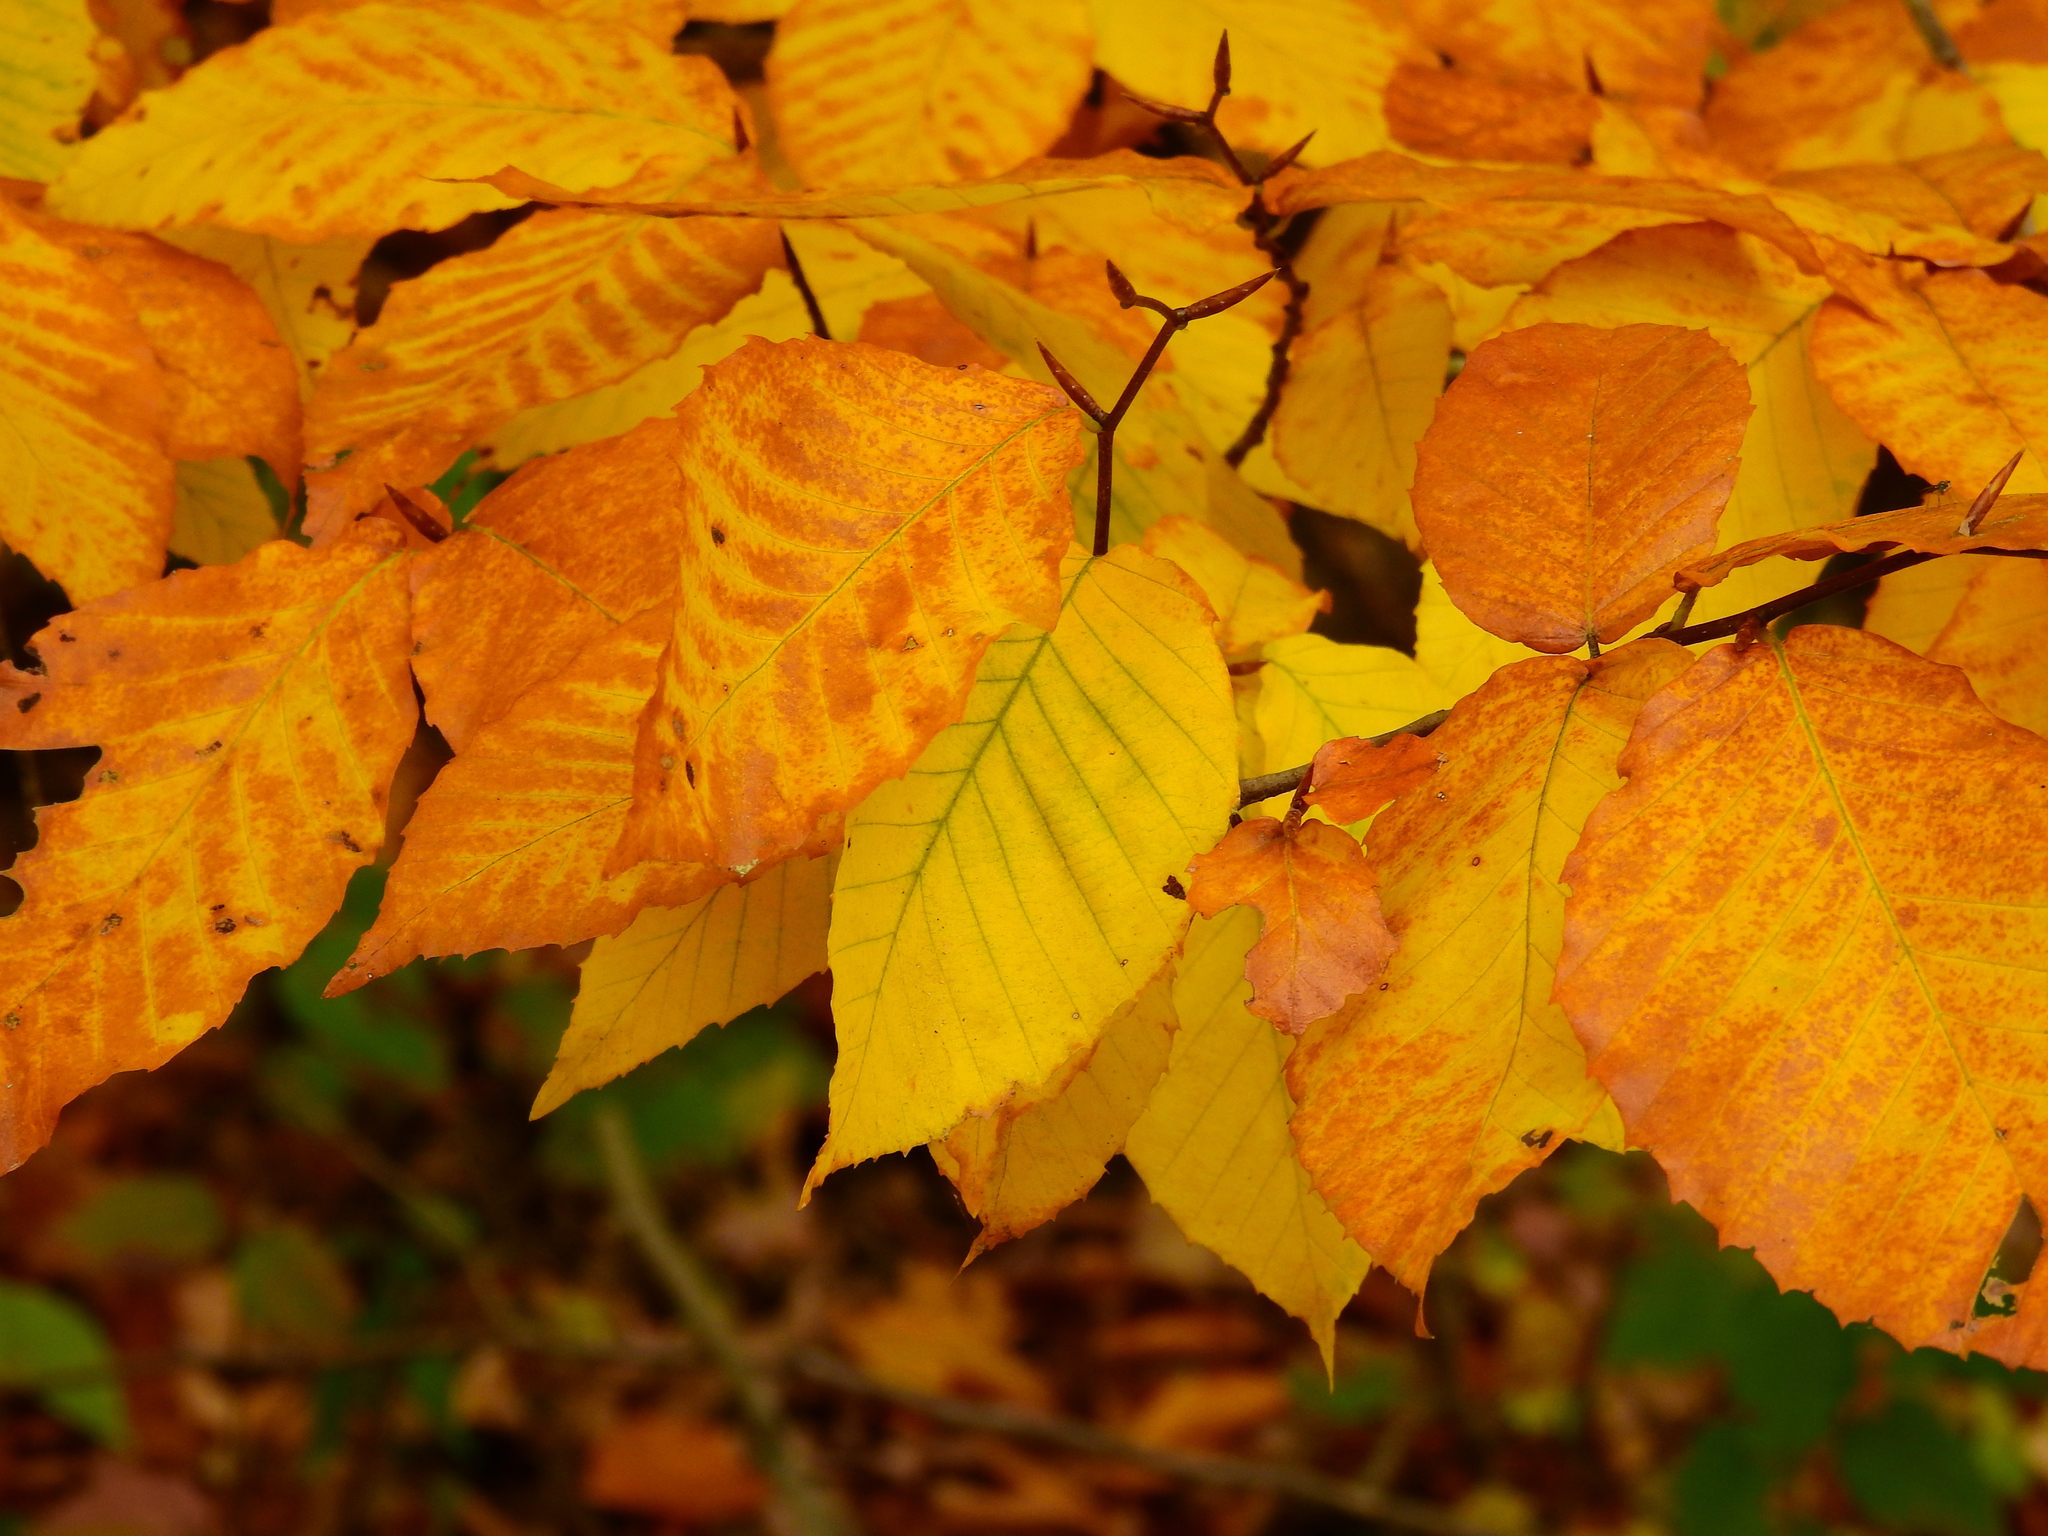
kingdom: Plantae
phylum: Tracheophyta
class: Magnoliopsida
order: Fagales
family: Fagaceae
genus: Fagus
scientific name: Fagus grandifolia
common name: American beech
